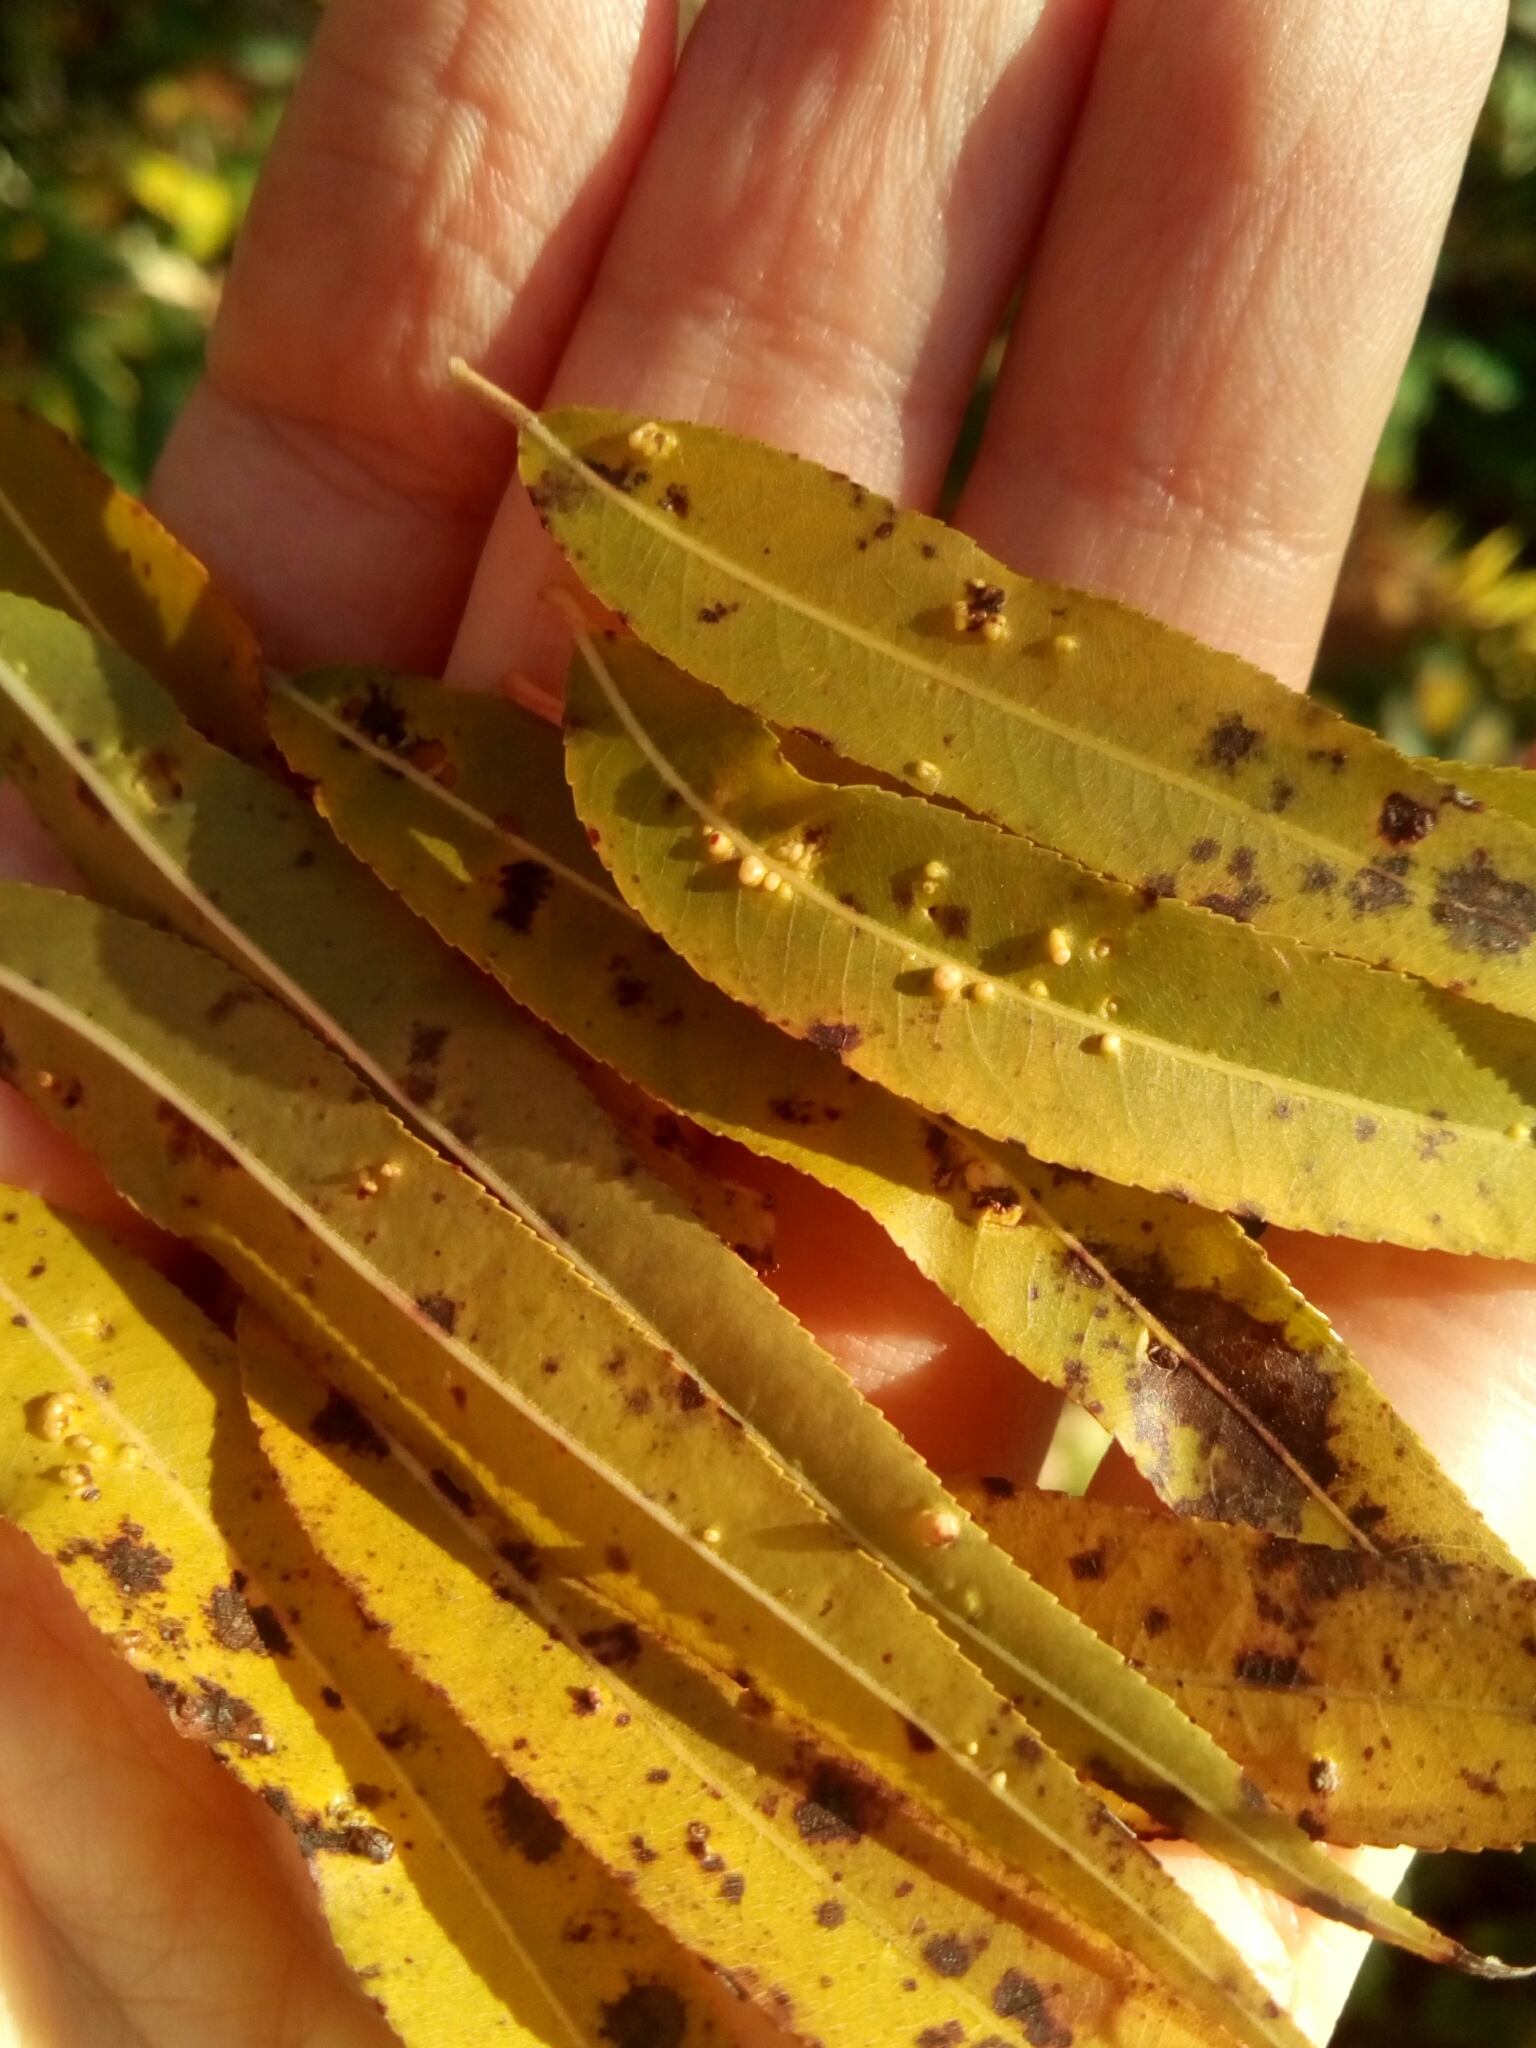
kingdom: Animalia
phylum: Arthropoda
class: Arachnida
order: Trombidiformes
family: Eriophyidae
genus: Aculus
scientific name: Aculus tetanothrix
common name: Willow bead gall mite
